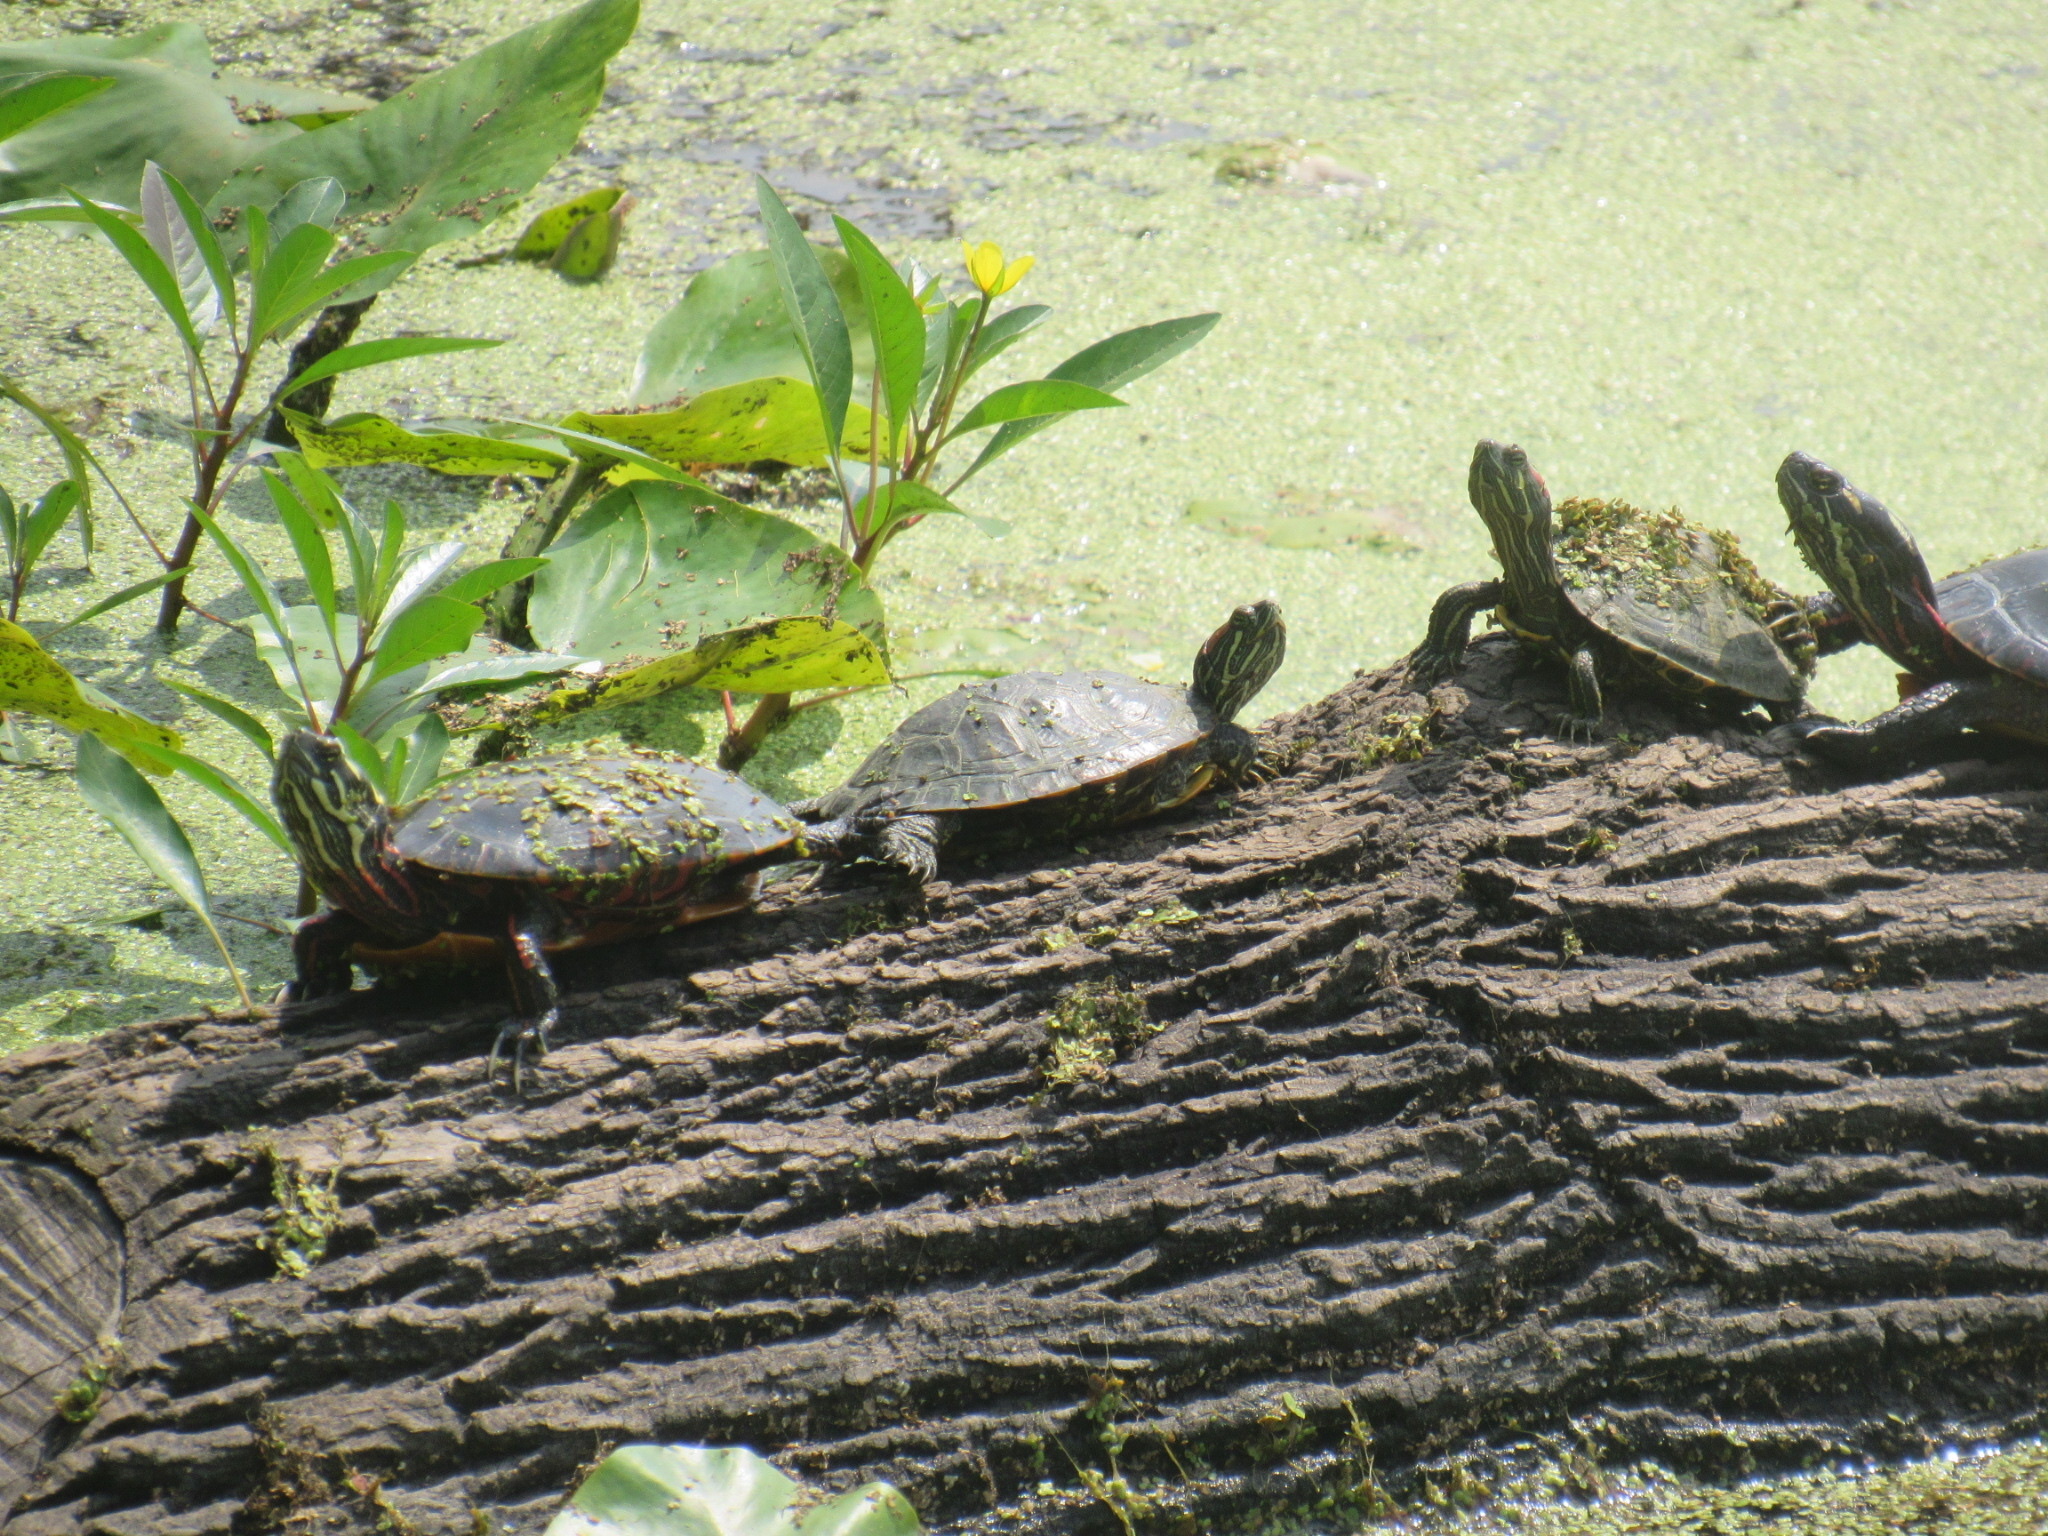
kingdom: Animalia
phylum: Chordata
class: Testudines
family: Emydidae
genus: Chrysemys
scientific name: Chrysemys picta
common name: Painted turtle
